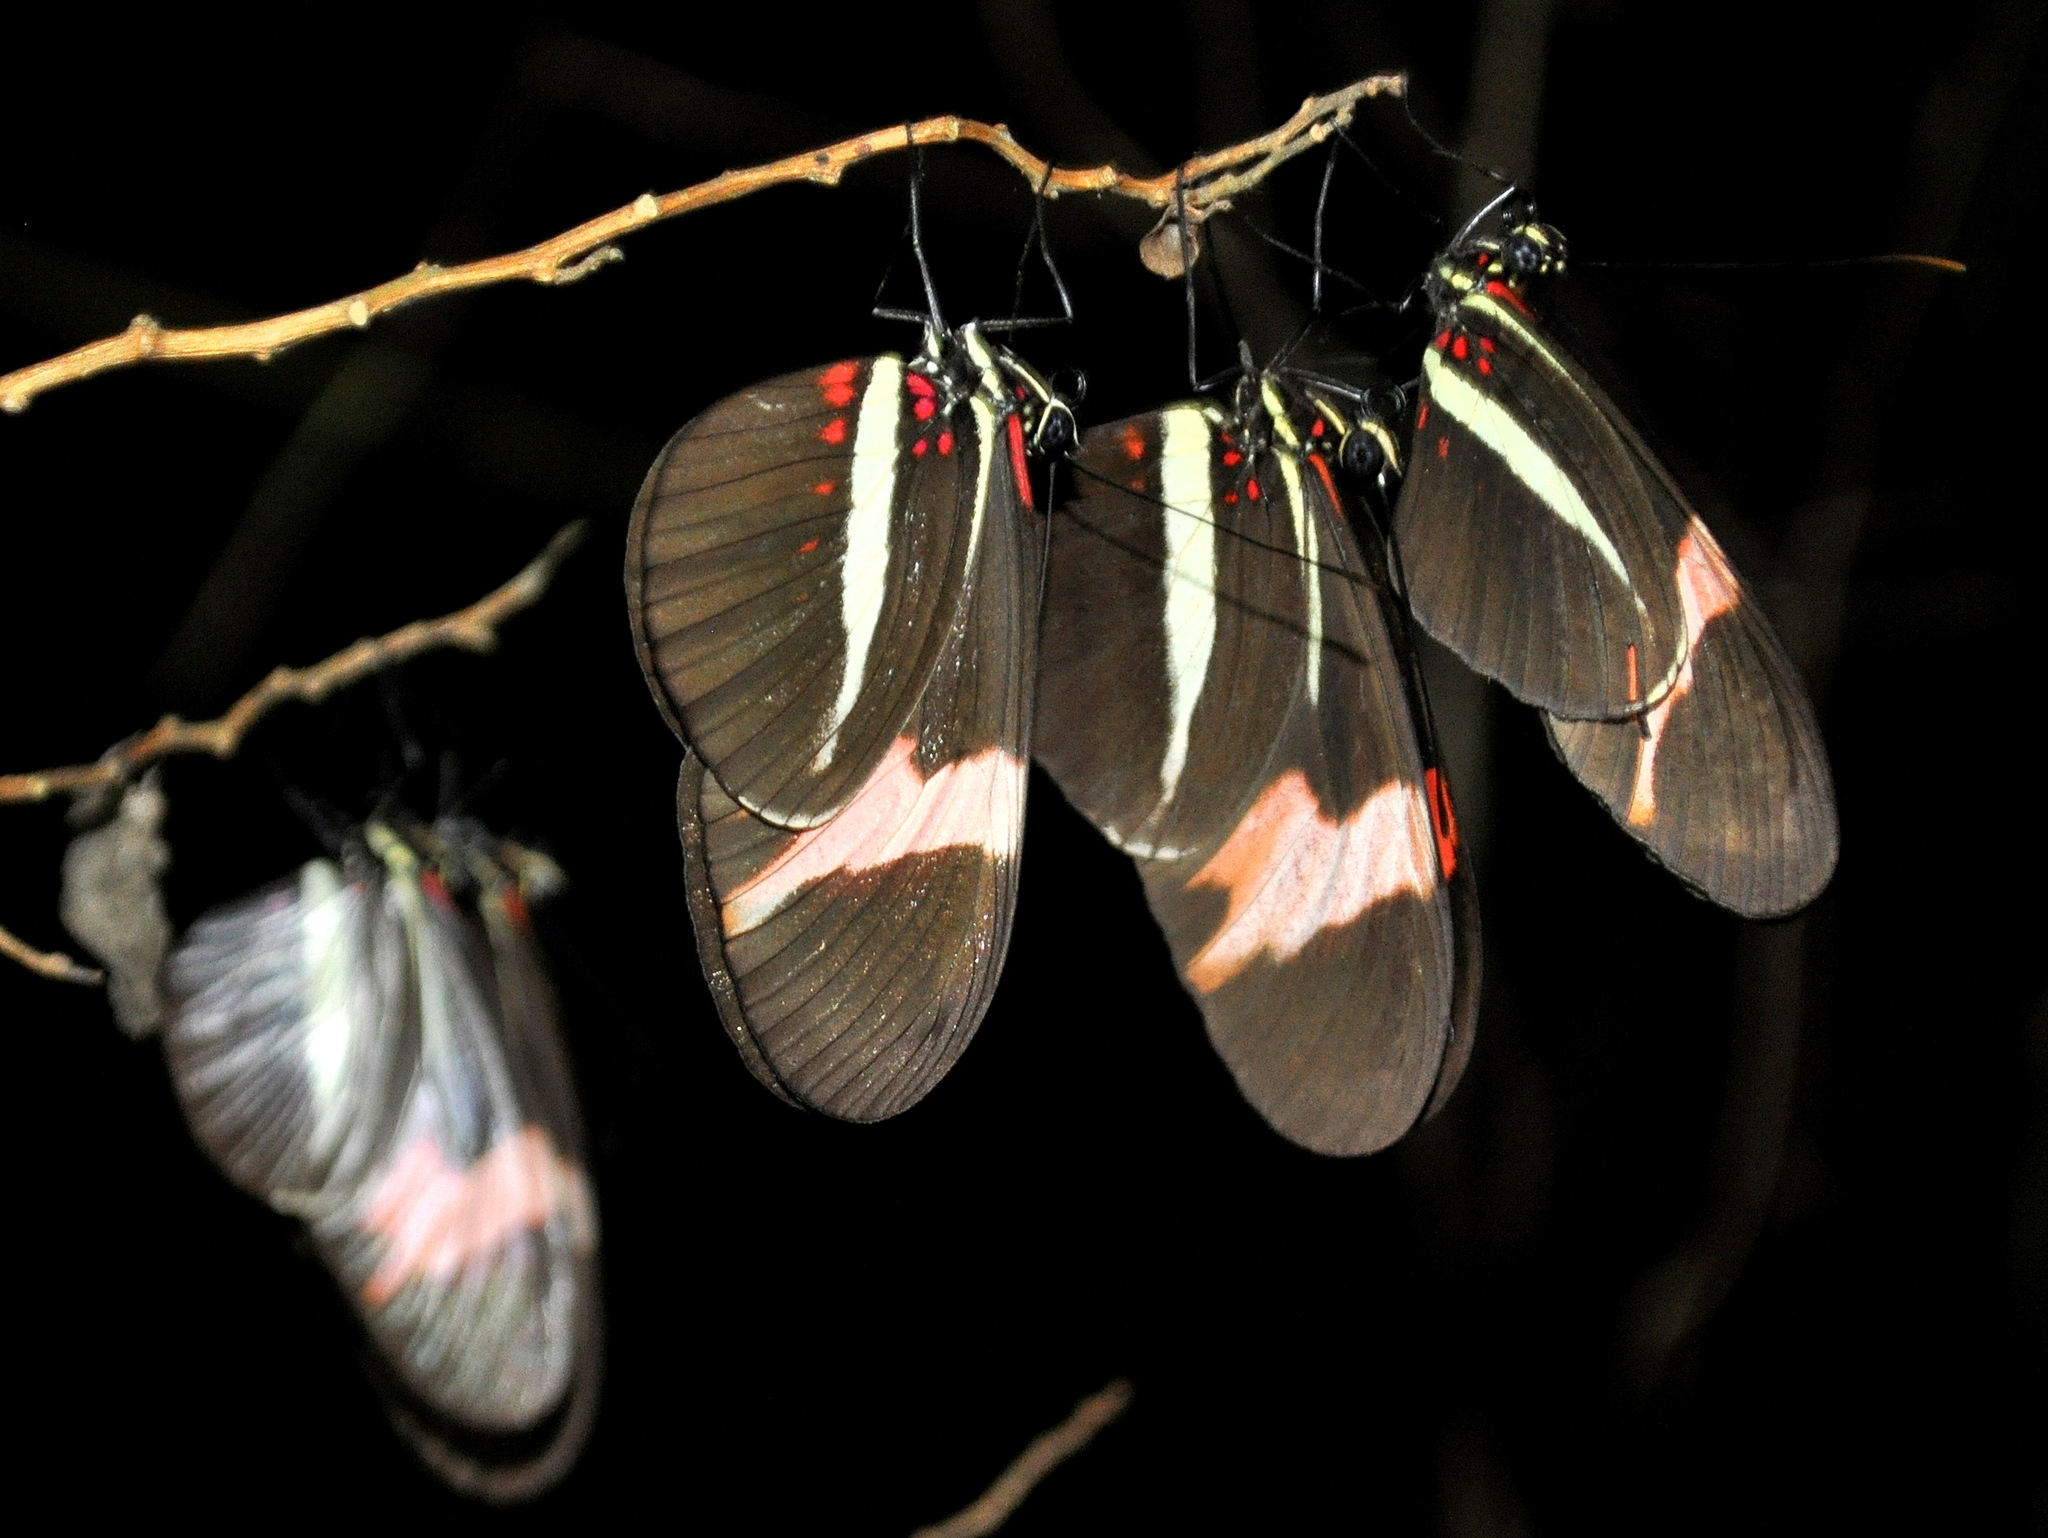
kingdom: Animalia
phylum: Arthropoda
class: Insecta
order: Lepidoptera
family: Nymphalidae
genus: Heliconius
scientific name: Heliconius erato
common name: Common patch longwing
